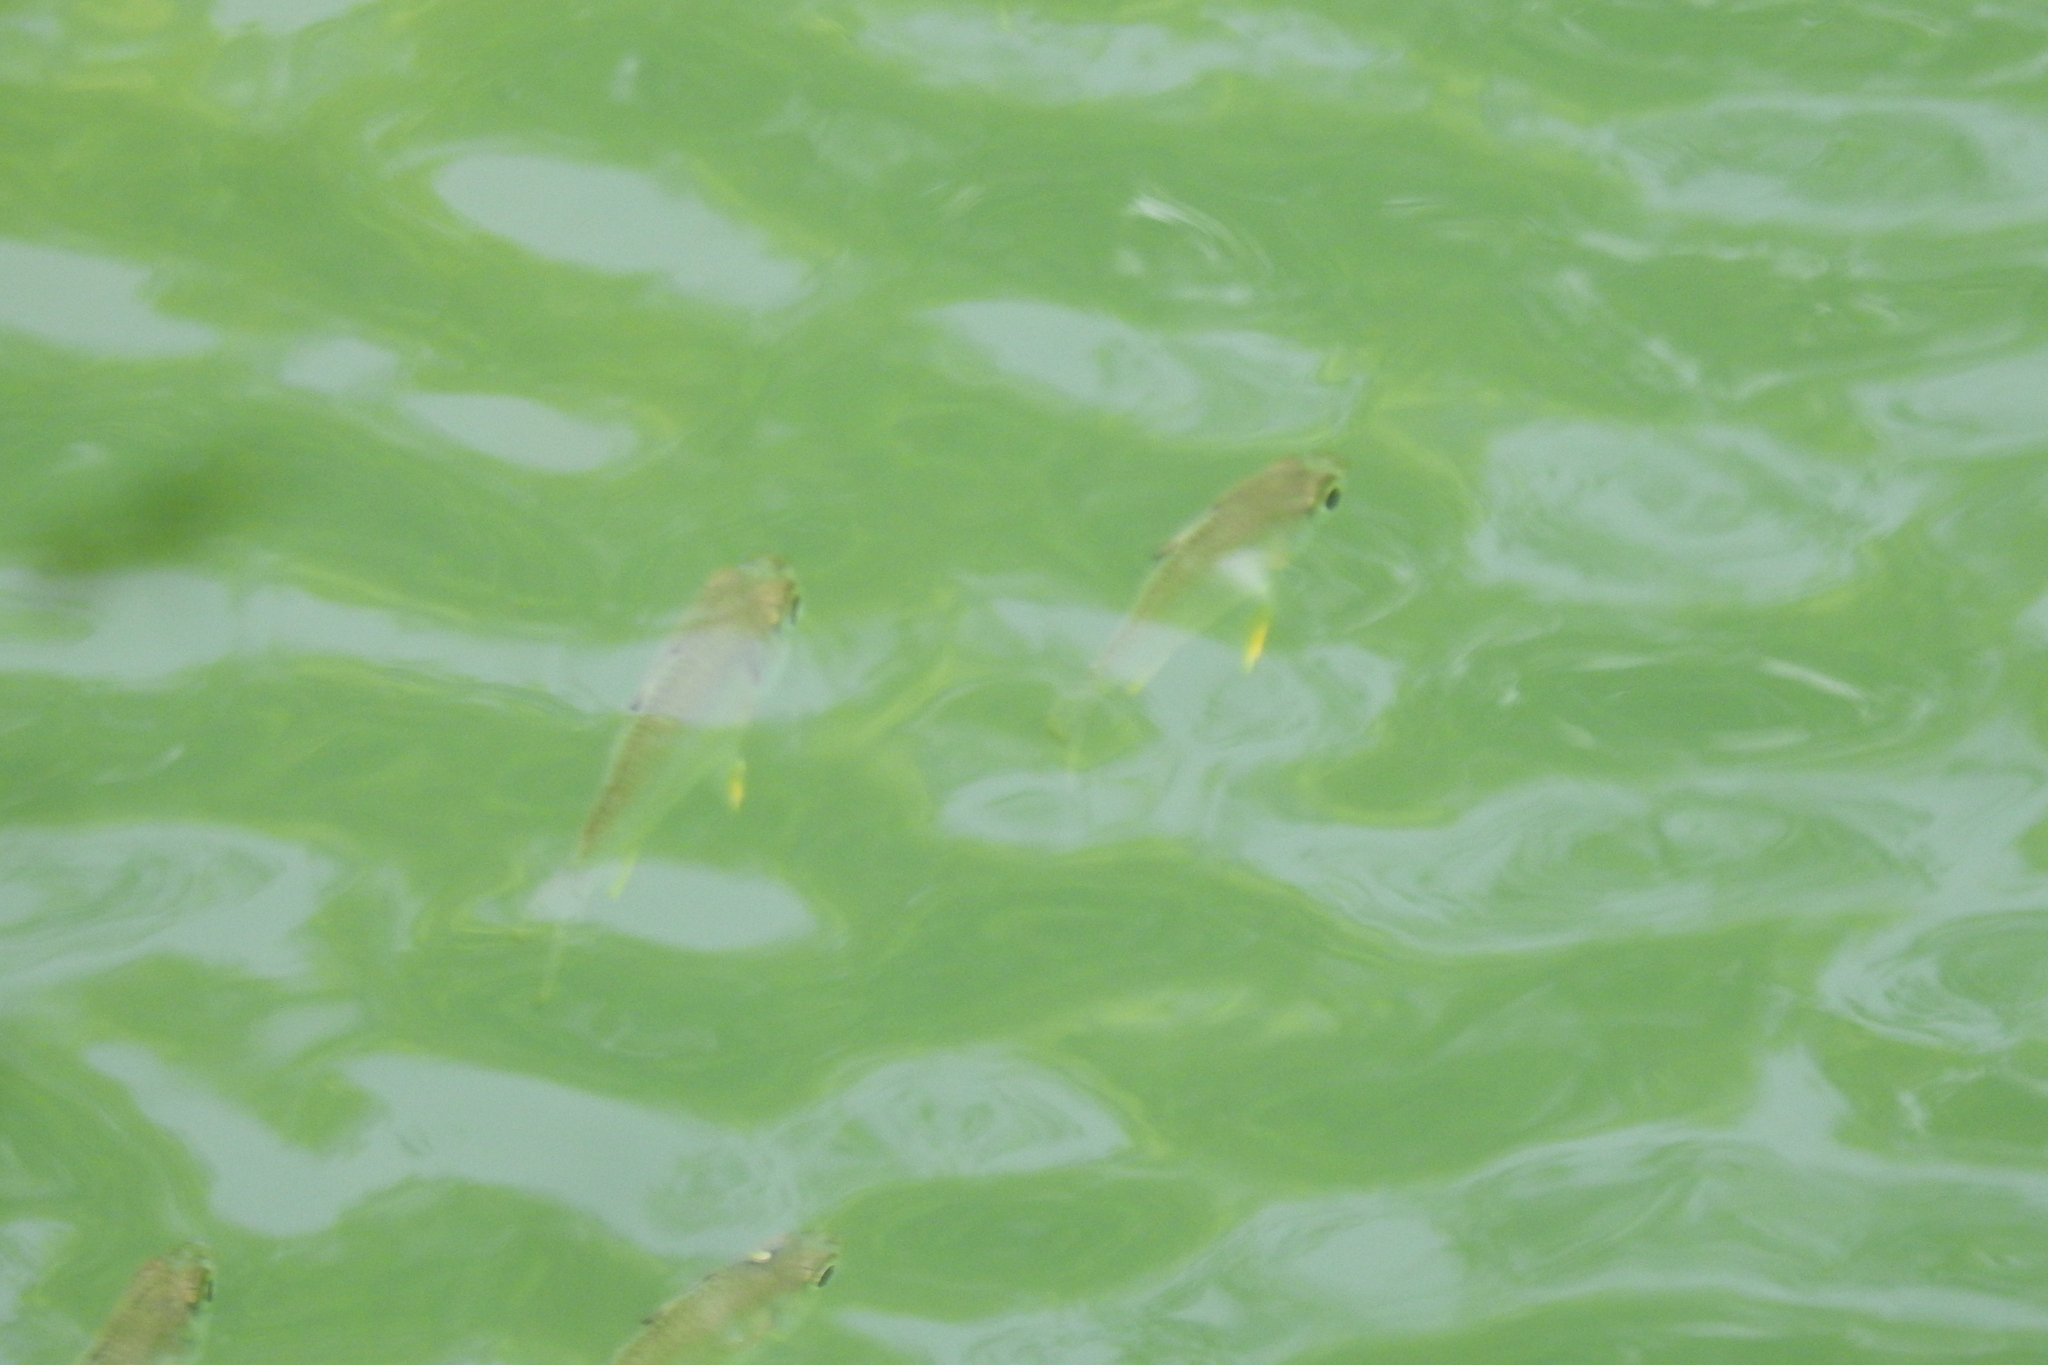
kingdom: Animalia
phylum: Chordata
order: Perciformes
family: Ambassidae
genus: Ambassis
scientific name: Ambassis kopsii
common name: Freckled hawkfish
